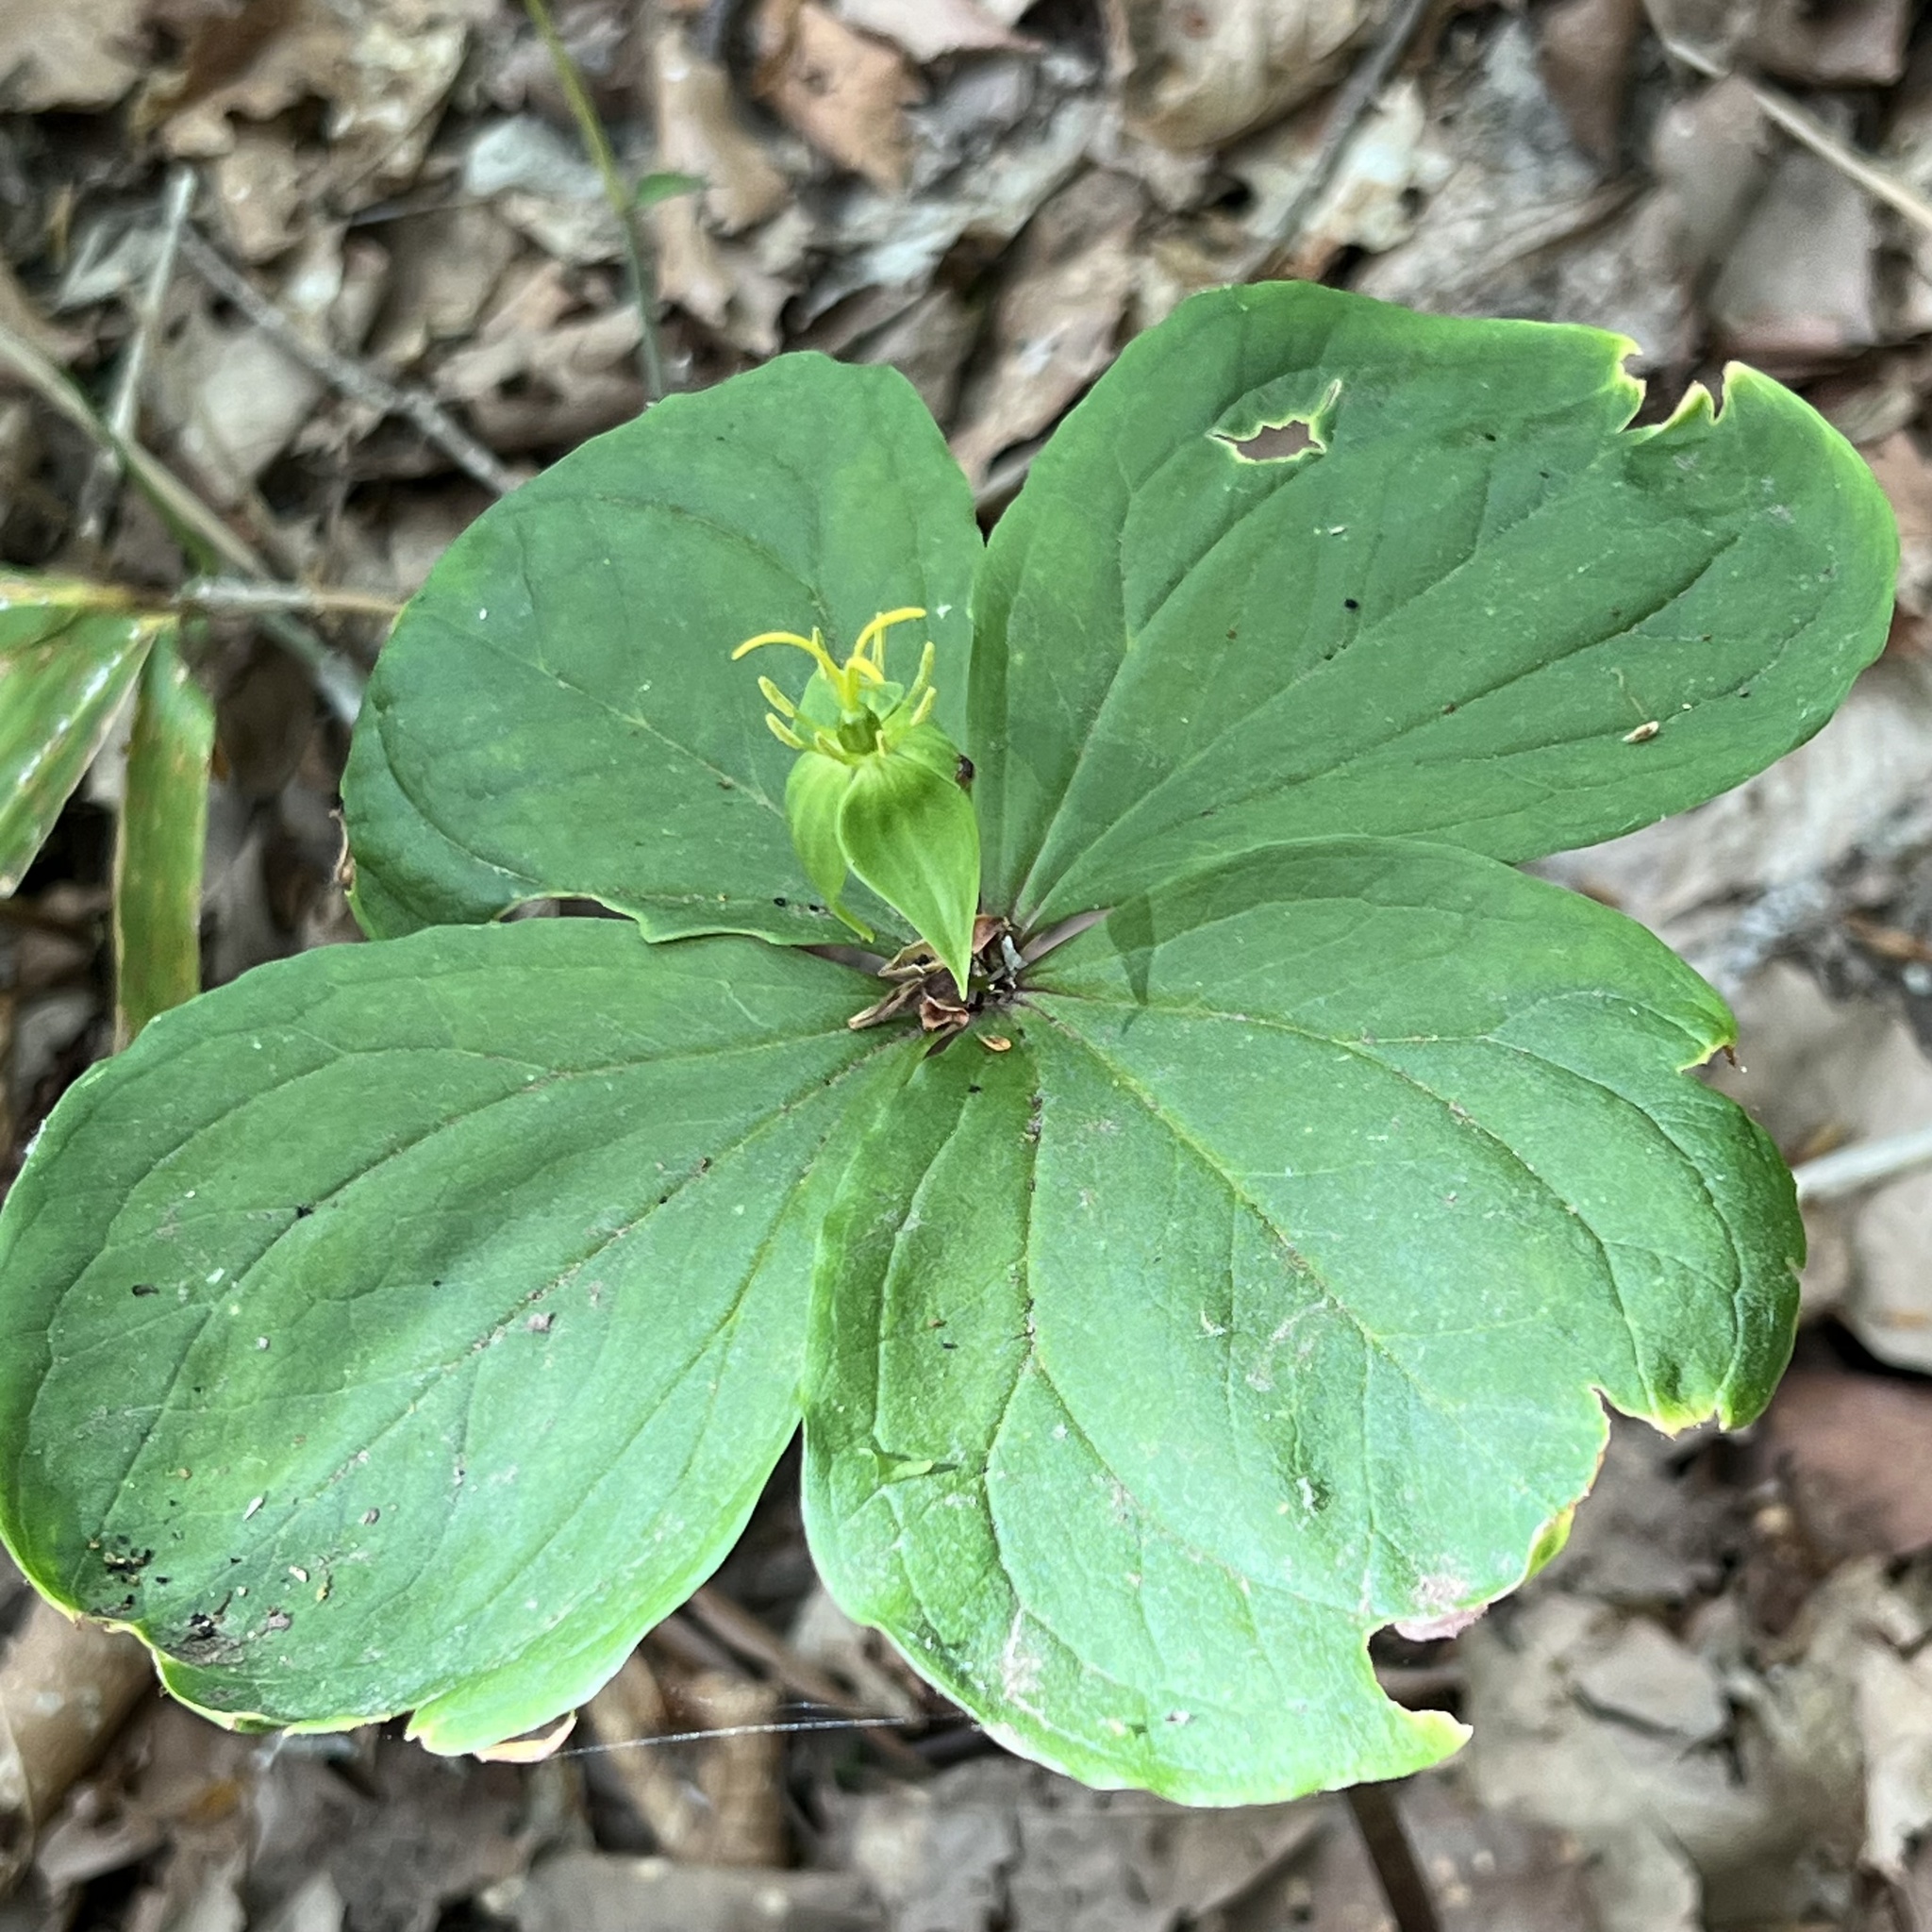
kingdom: Plantae
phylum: Tracheophyta
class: Liliopsida
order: Liliales
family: Melanthiaceae
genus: Paris
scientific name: Paris tetraphylla
